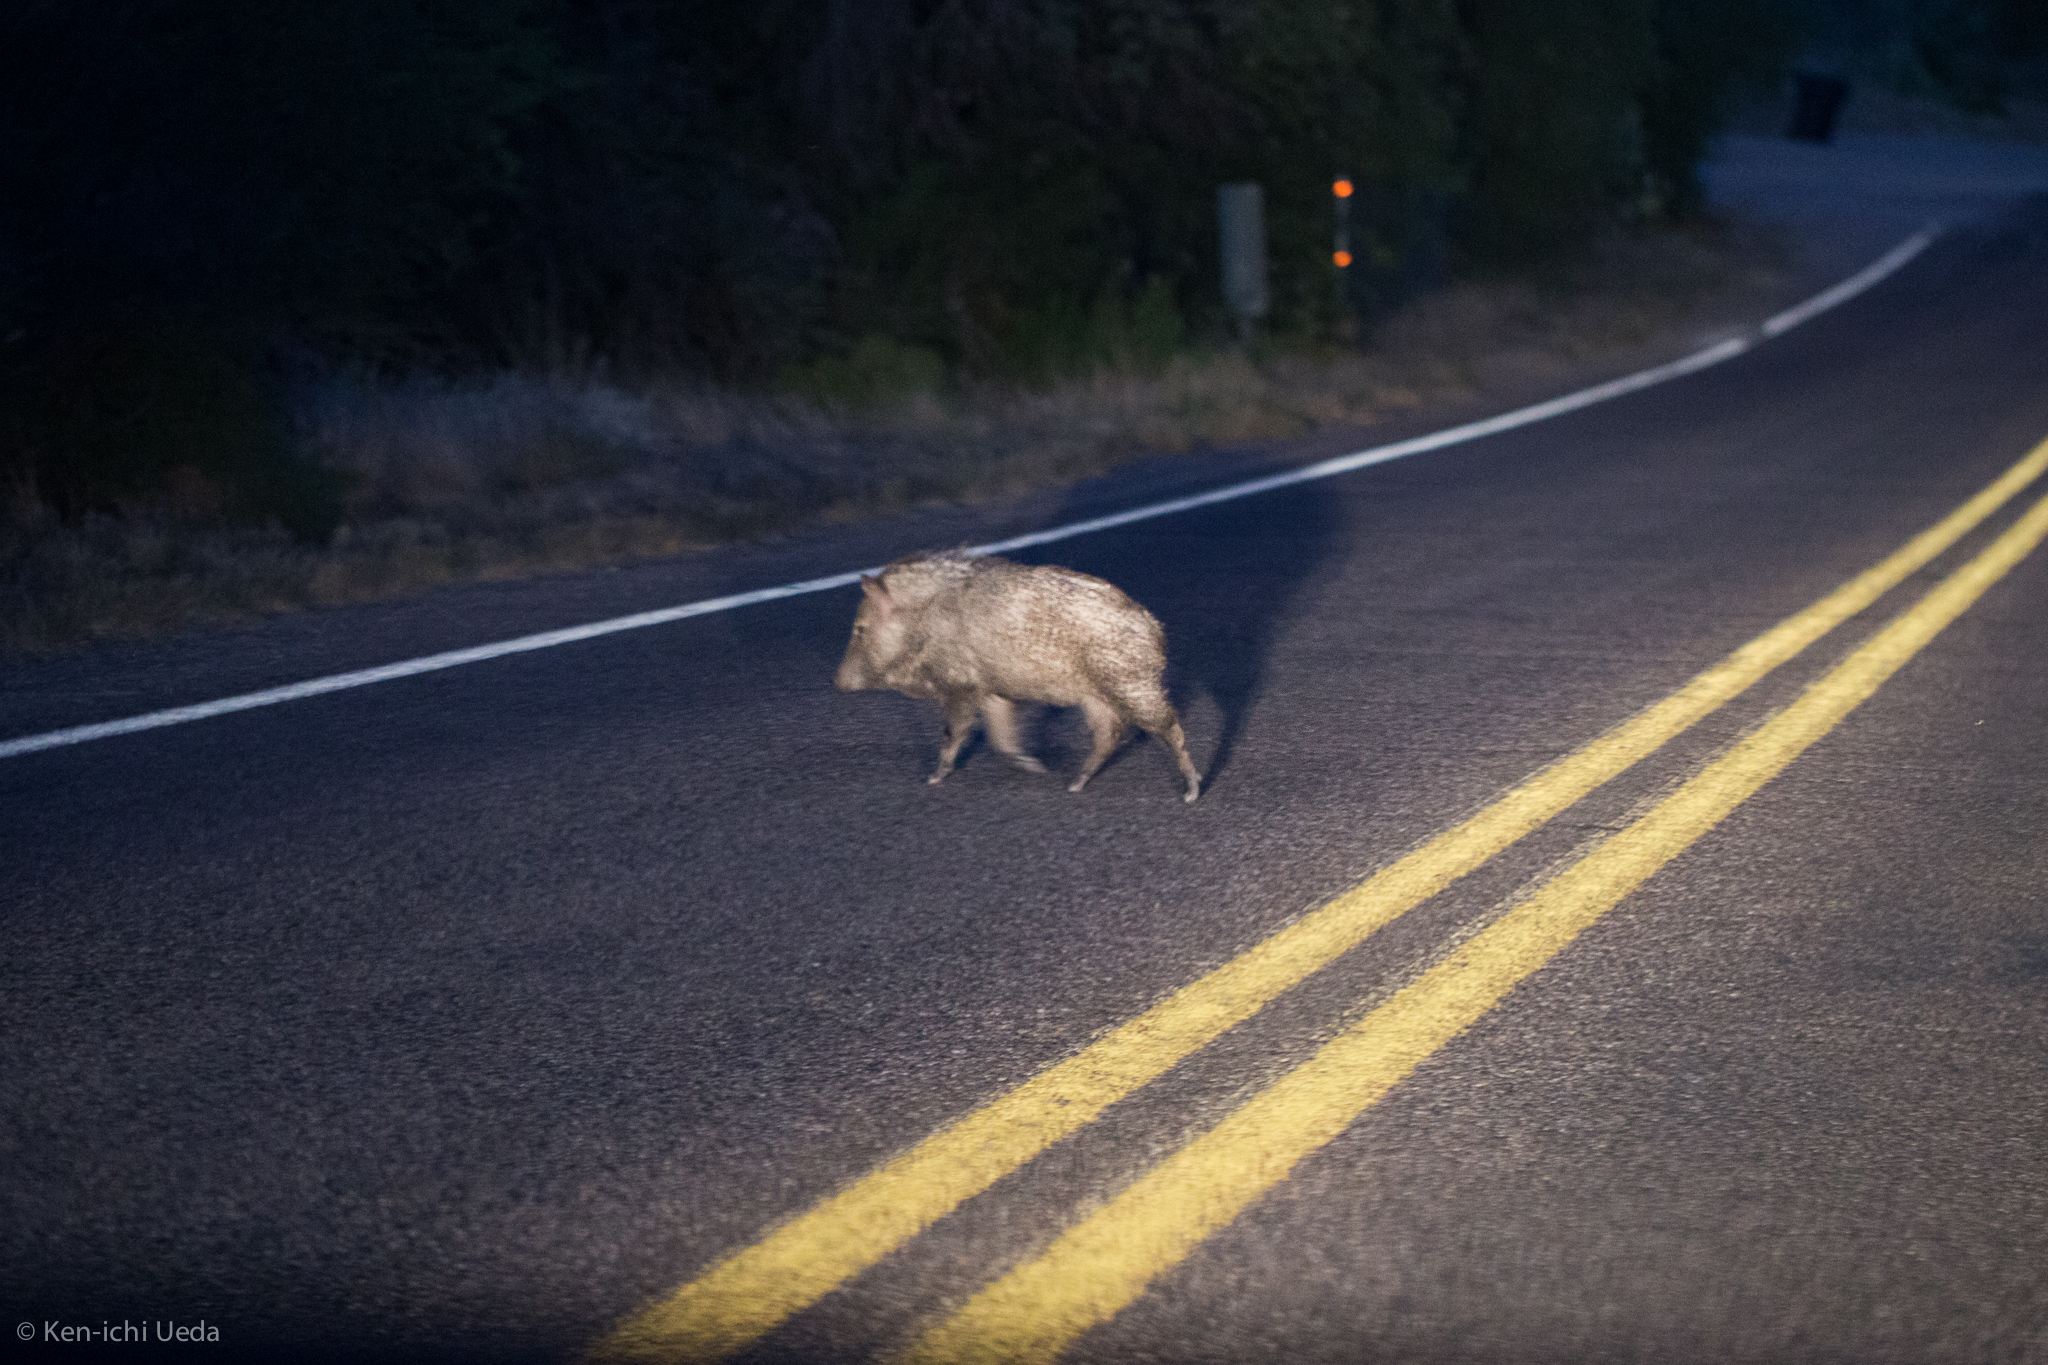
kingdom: Animalia
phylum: Chordata
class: Mammalia
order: Artiodactyla
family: Tayassuidae
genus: Pecari
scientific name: Pecari tajacu
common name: Collared peccary
